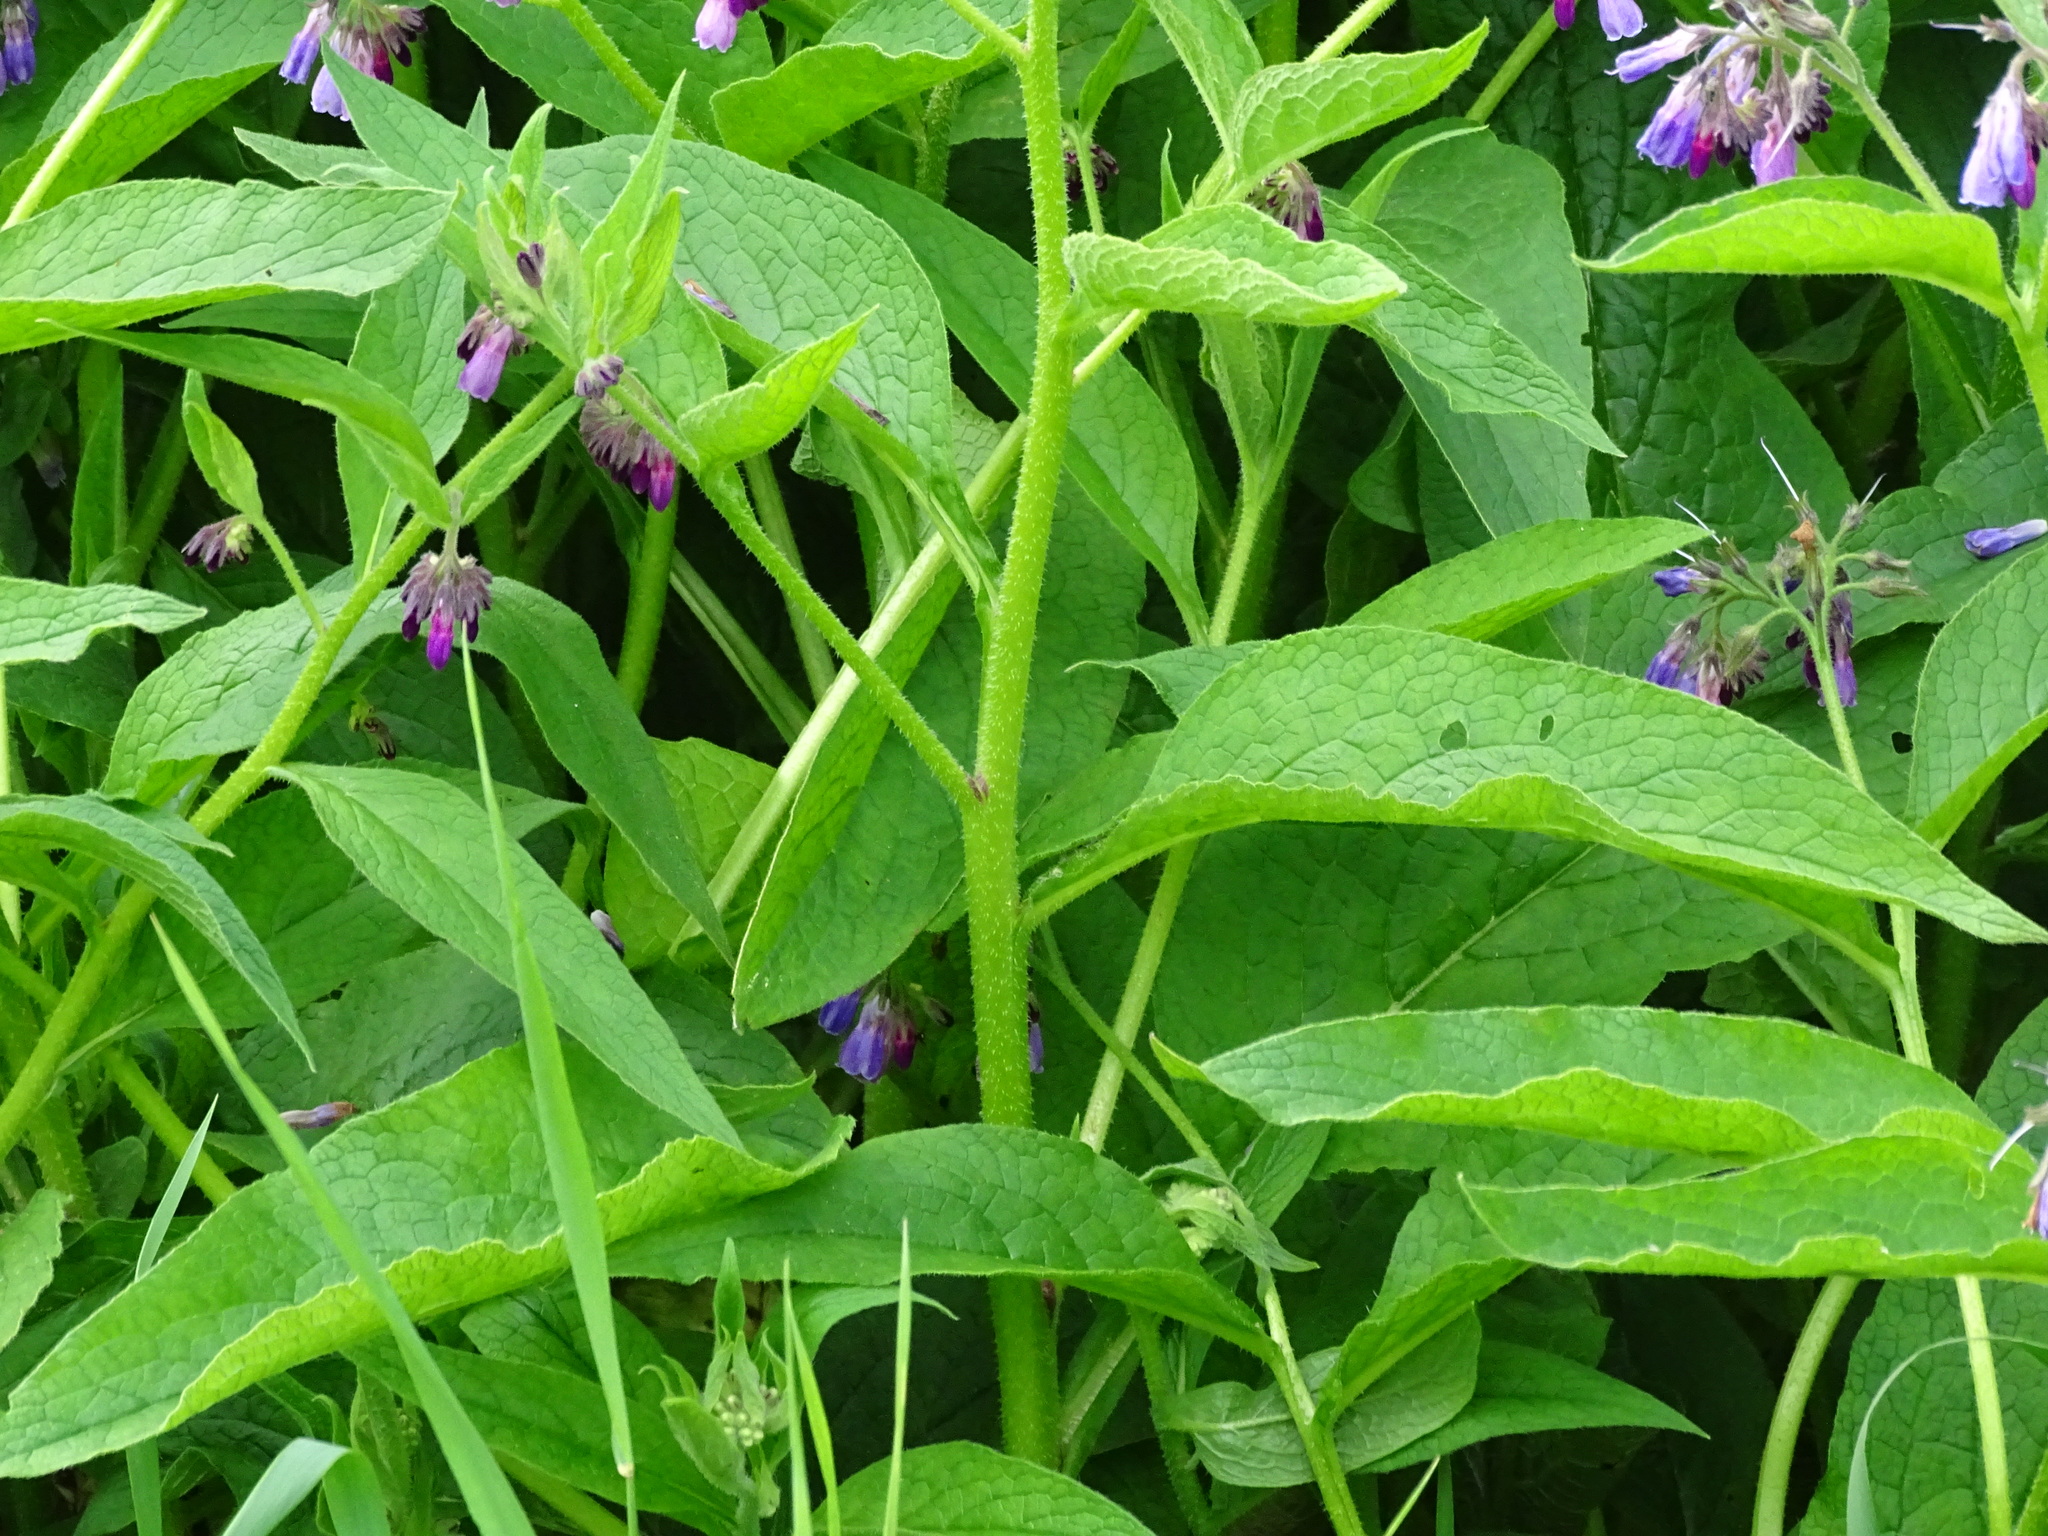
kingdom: Plantae
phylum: Tracheophyta
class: Magnoliopsida
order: Boraginales
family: Boraginaceae
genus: Symphytum
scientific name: Symphytum uplandicum
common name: Russian comfrey
